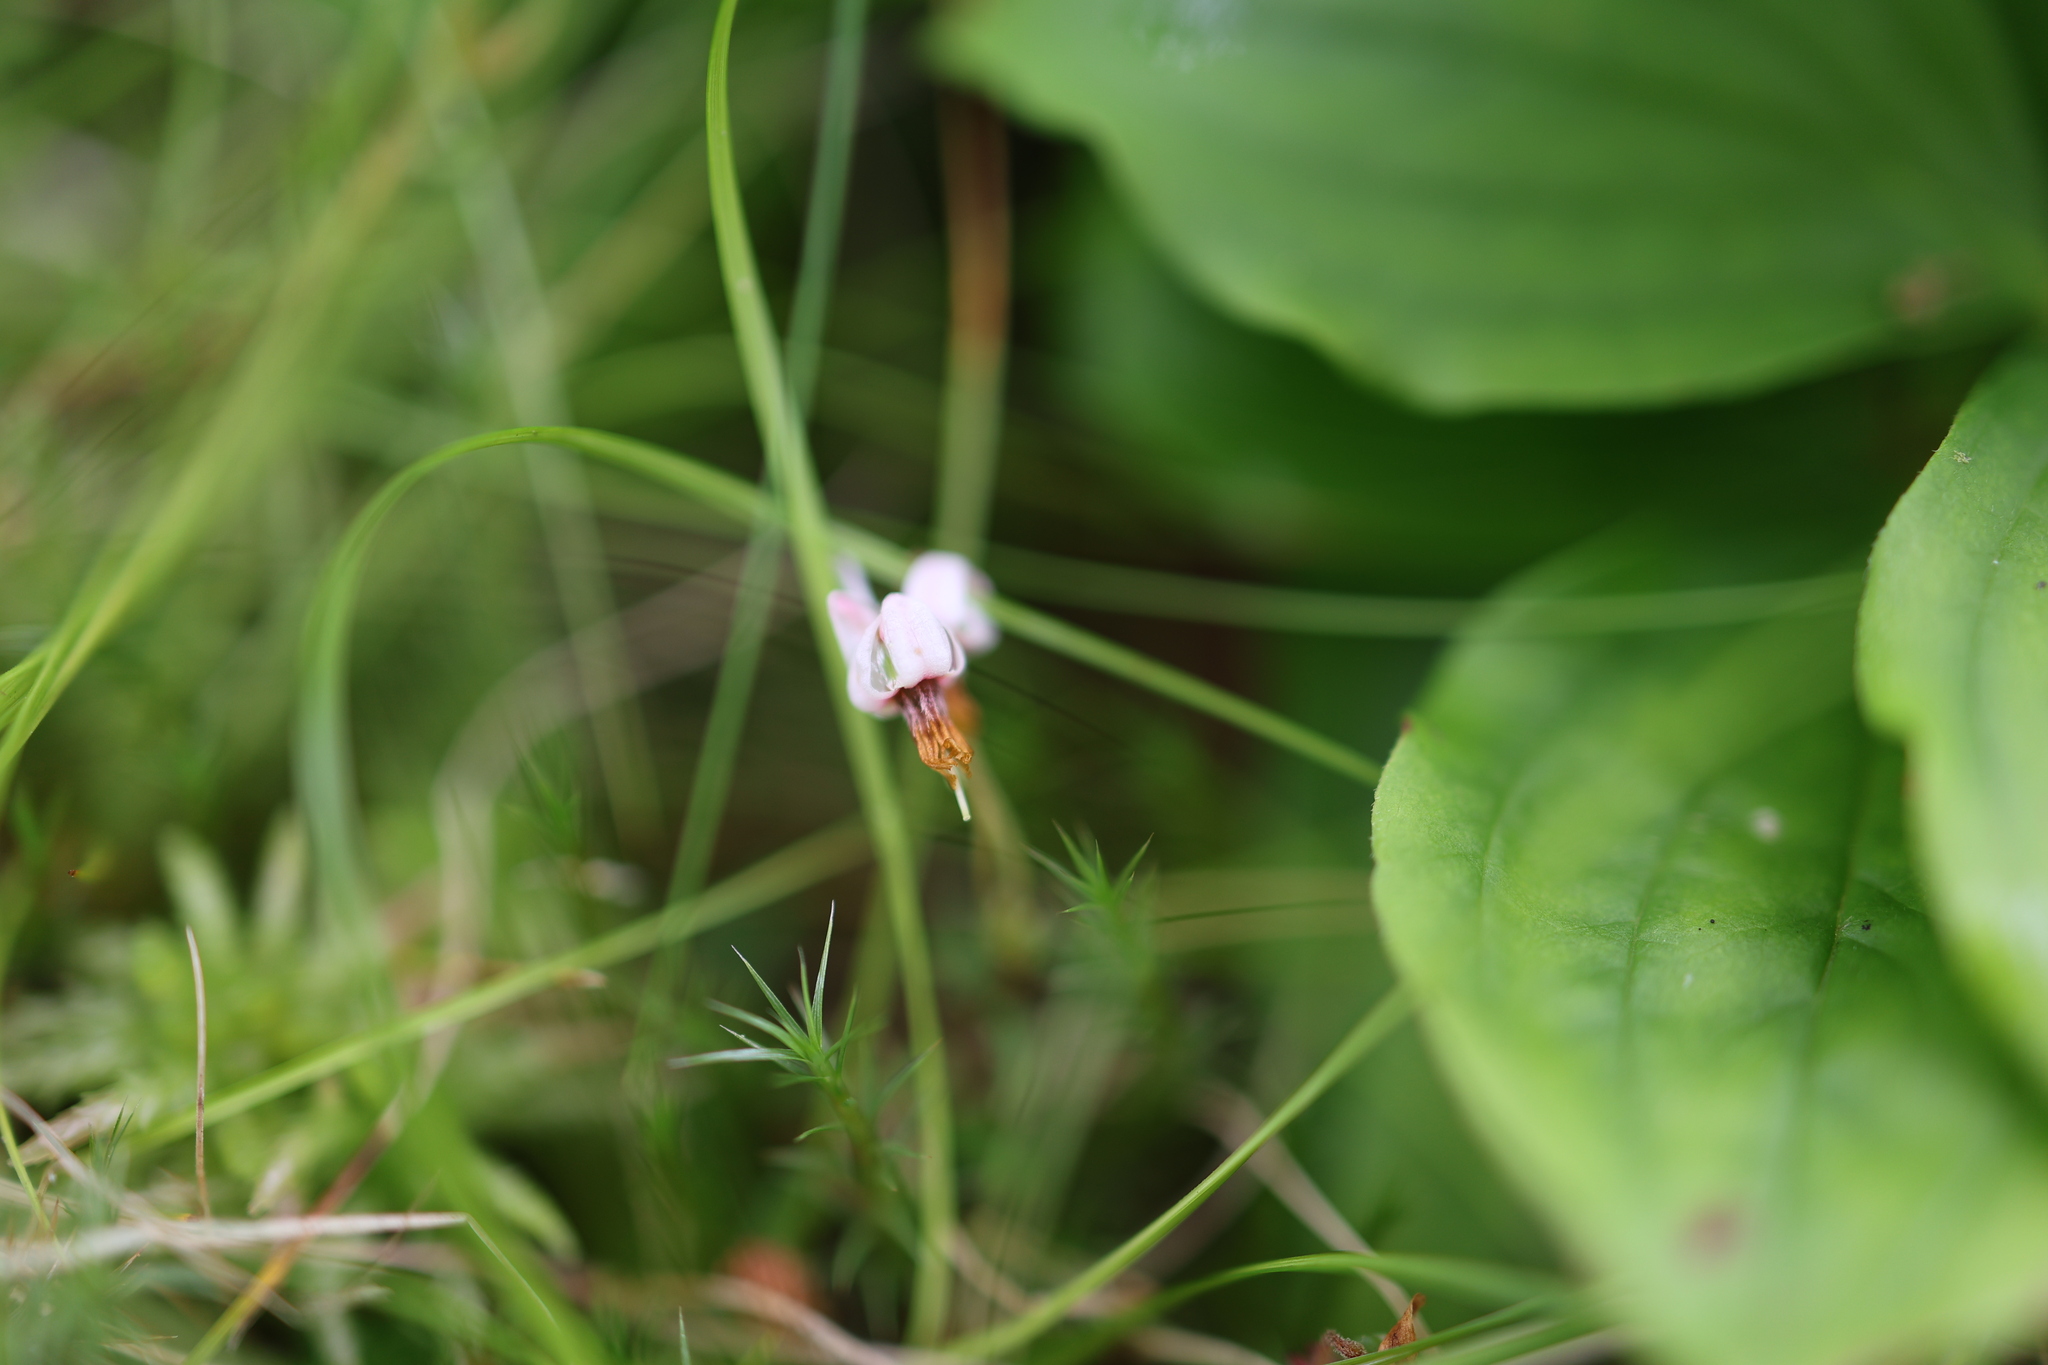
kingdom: Plantae
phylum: Tracheophyta
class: Magnoliopsida
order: Ericales
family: Ericaceae
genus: Vaccinium
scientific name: Vaccinium oxycoccos
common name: Cranberry
